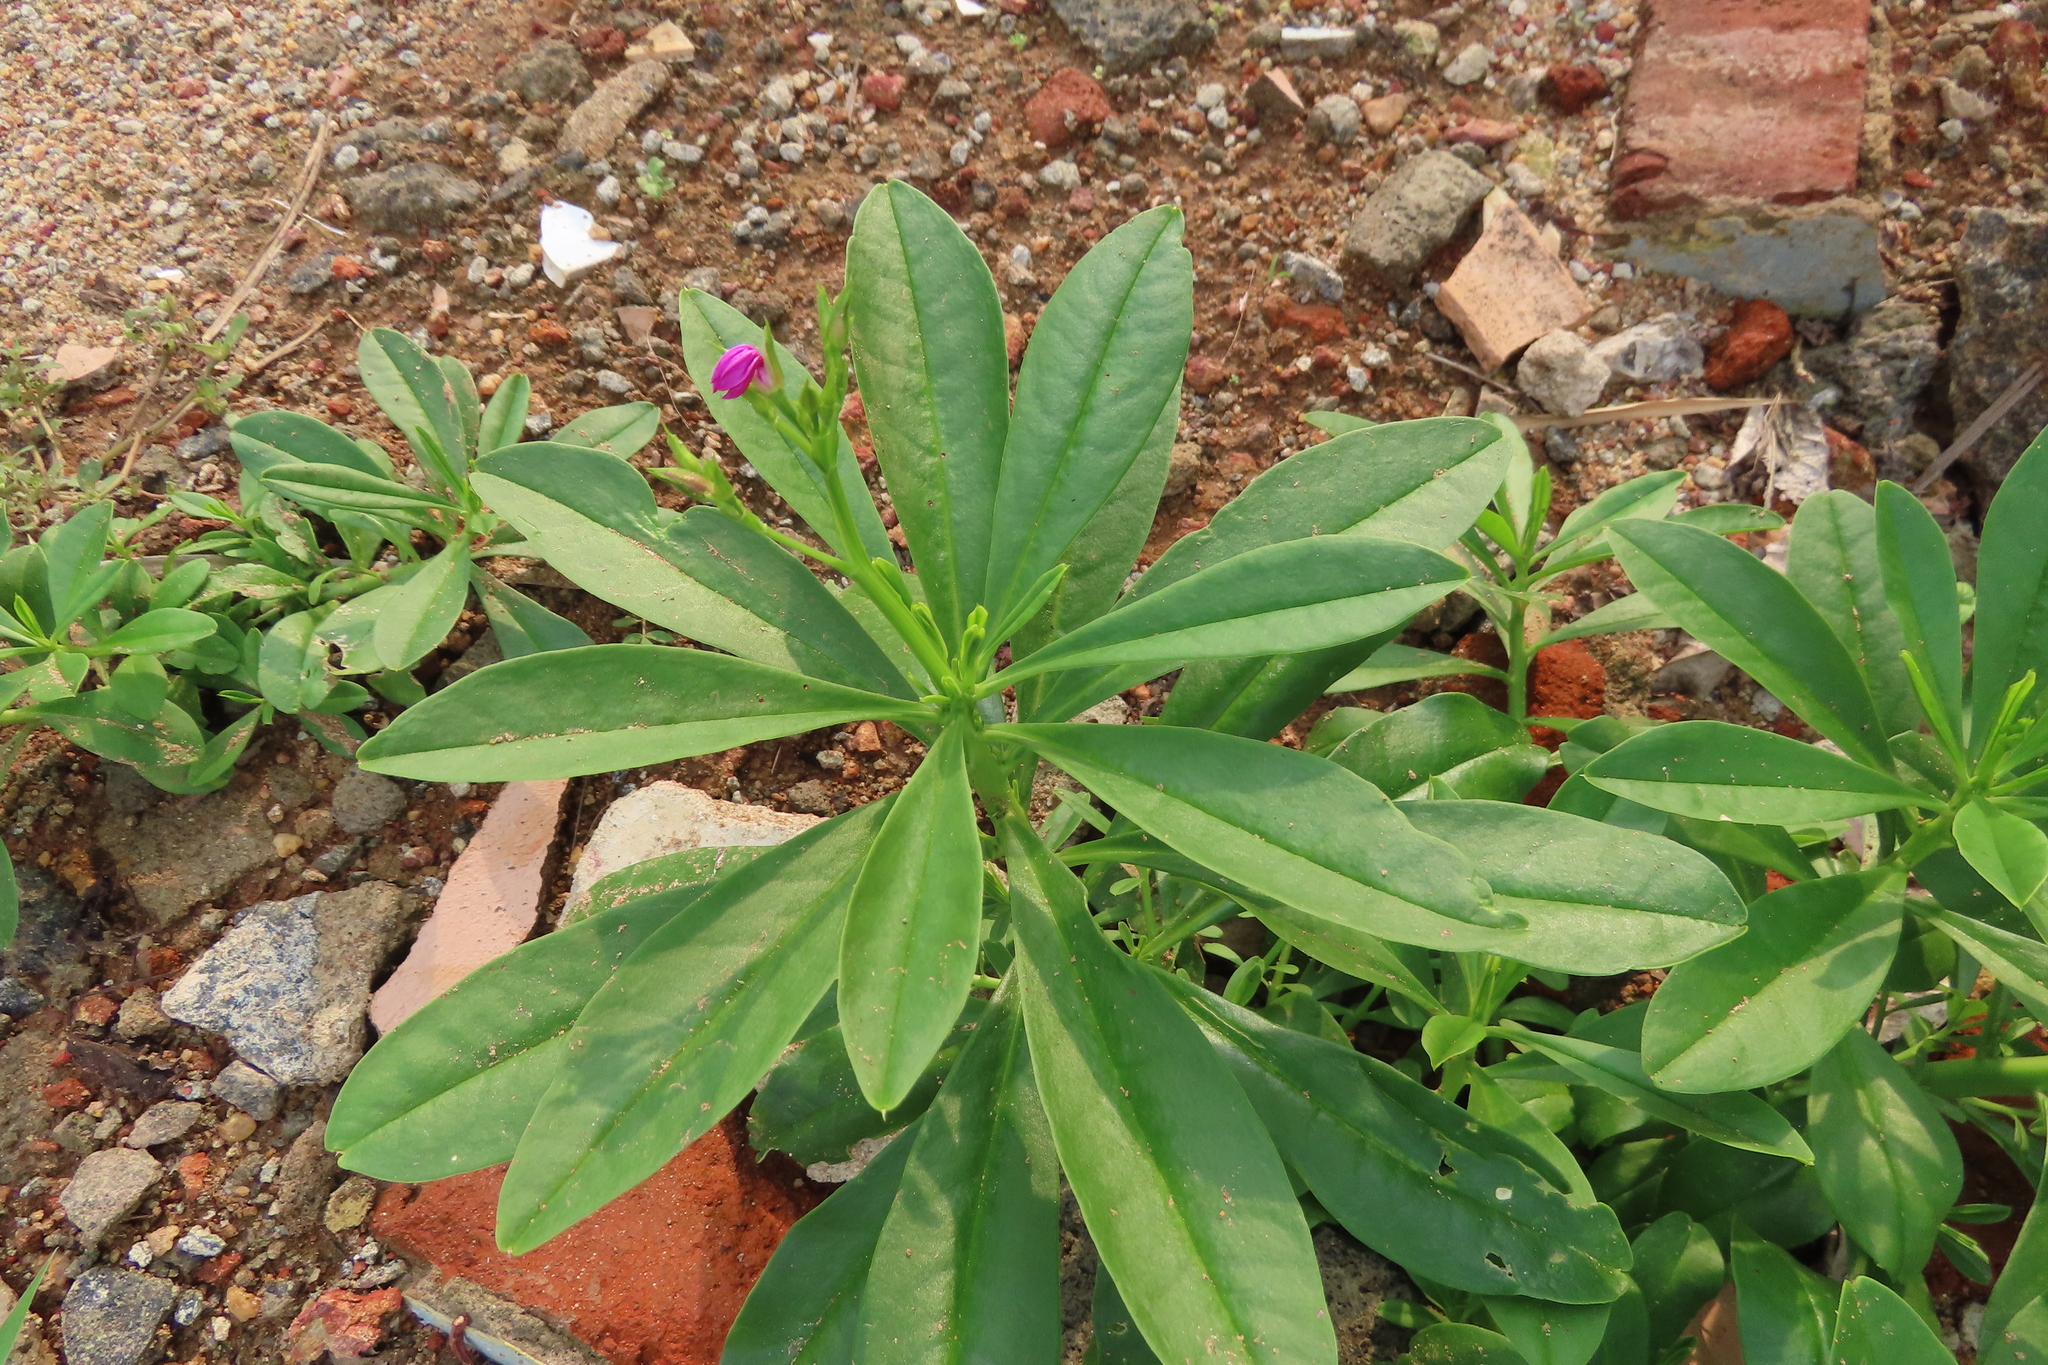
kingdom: Plantae
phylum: Tracheophyta
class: Magnoliopsida
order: Caryophyllales
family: Talinaceae
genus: Talinum
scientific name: Talinum fruticosum
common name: Verdolaga-francesa
